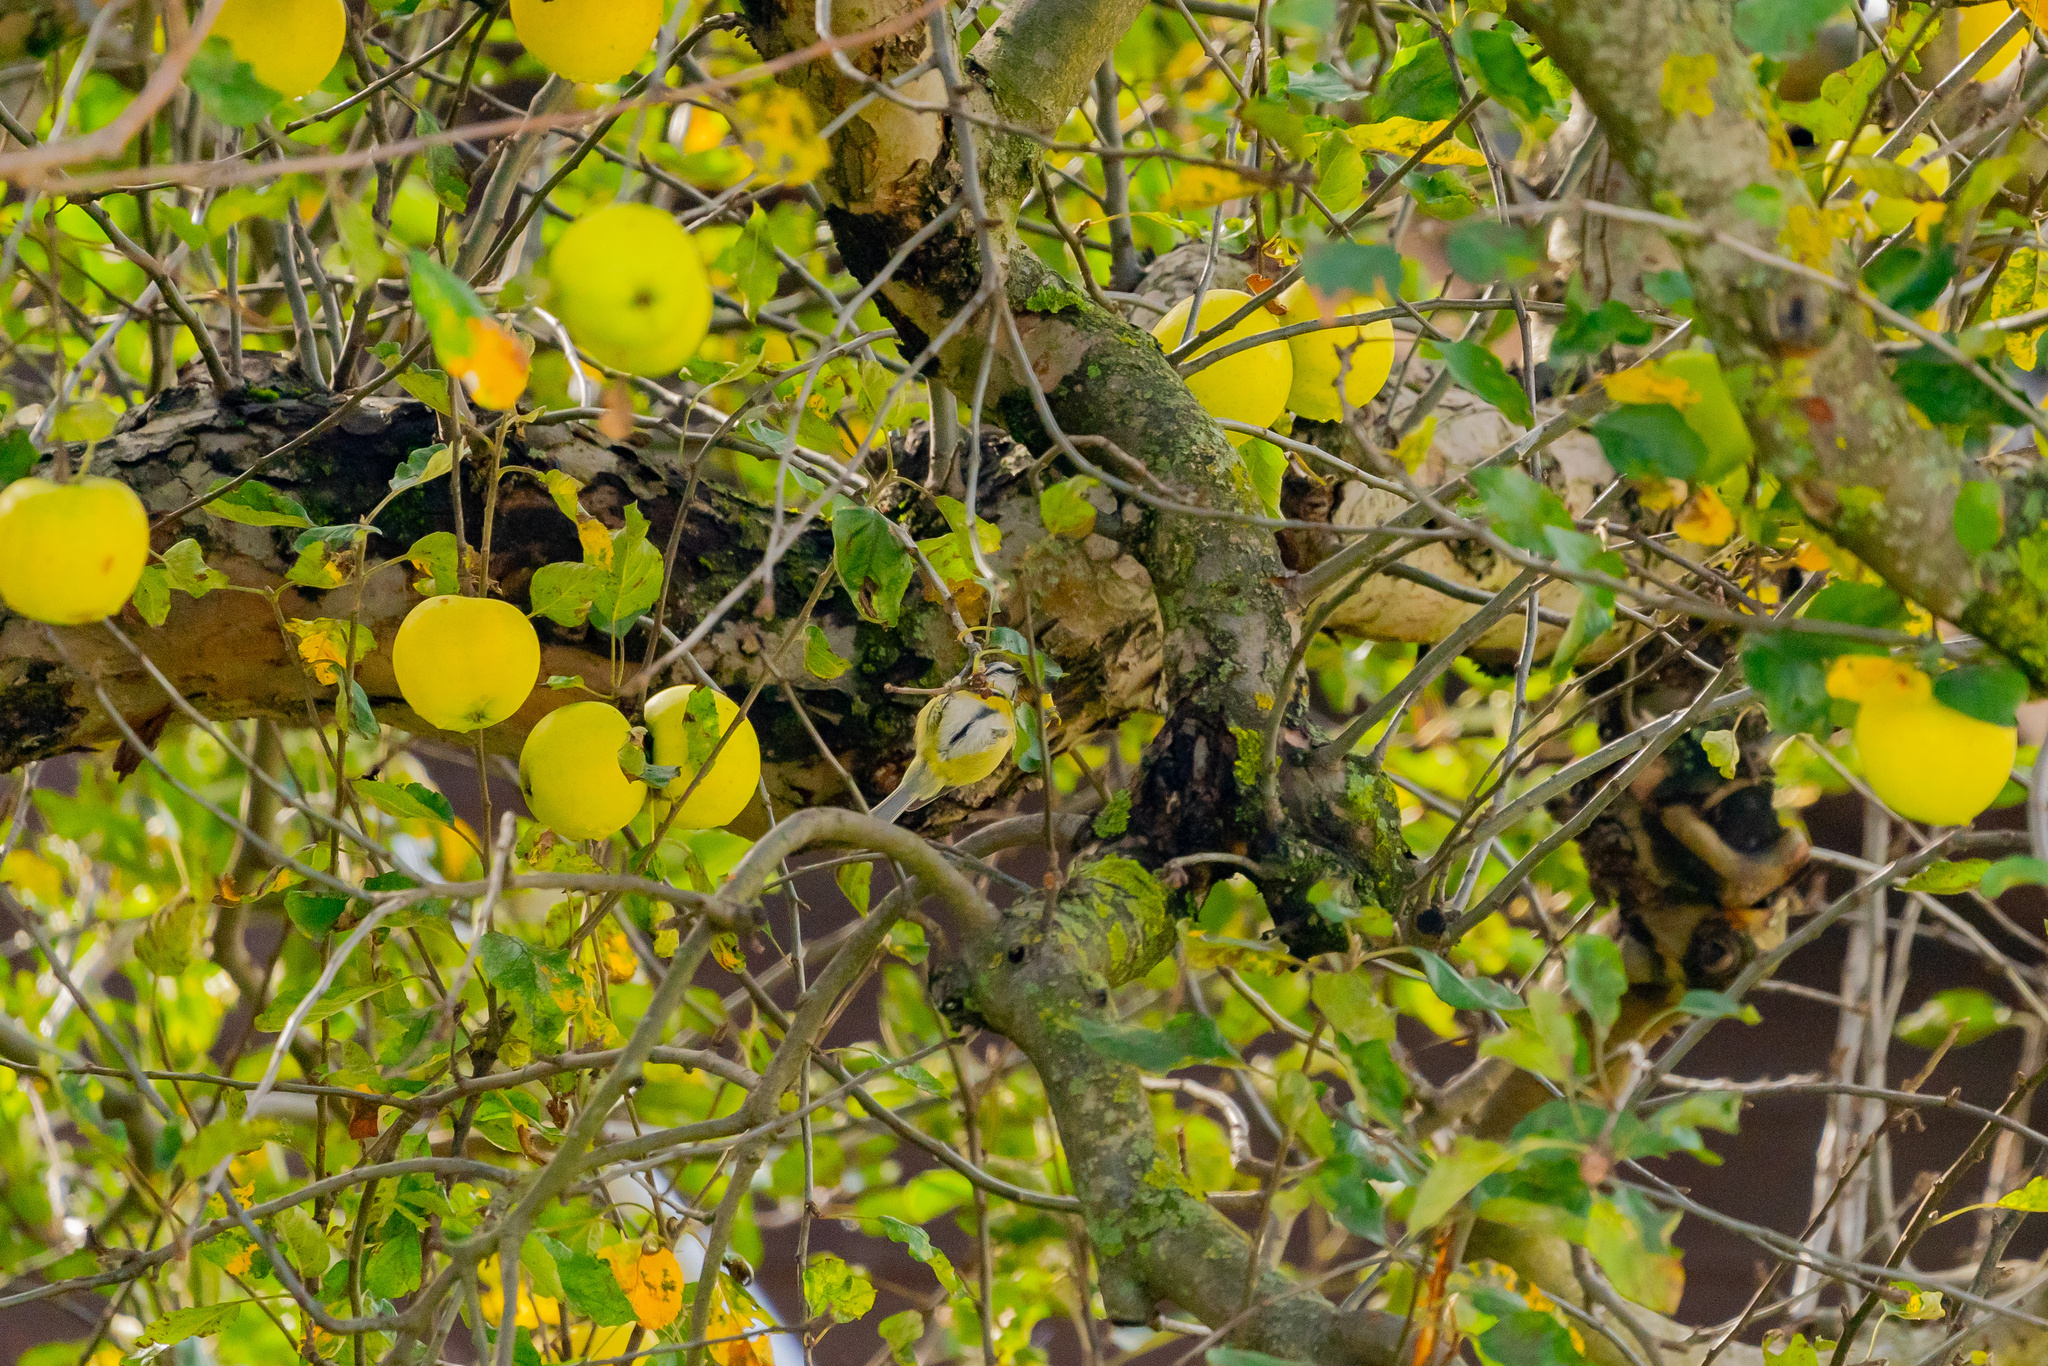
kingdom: Animalia
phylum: Chordata
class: Aves
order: Passeriformes
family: Paridae
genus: Cyanistes
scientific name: Cyanistes caeruleus
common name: Eurasian blue tit
